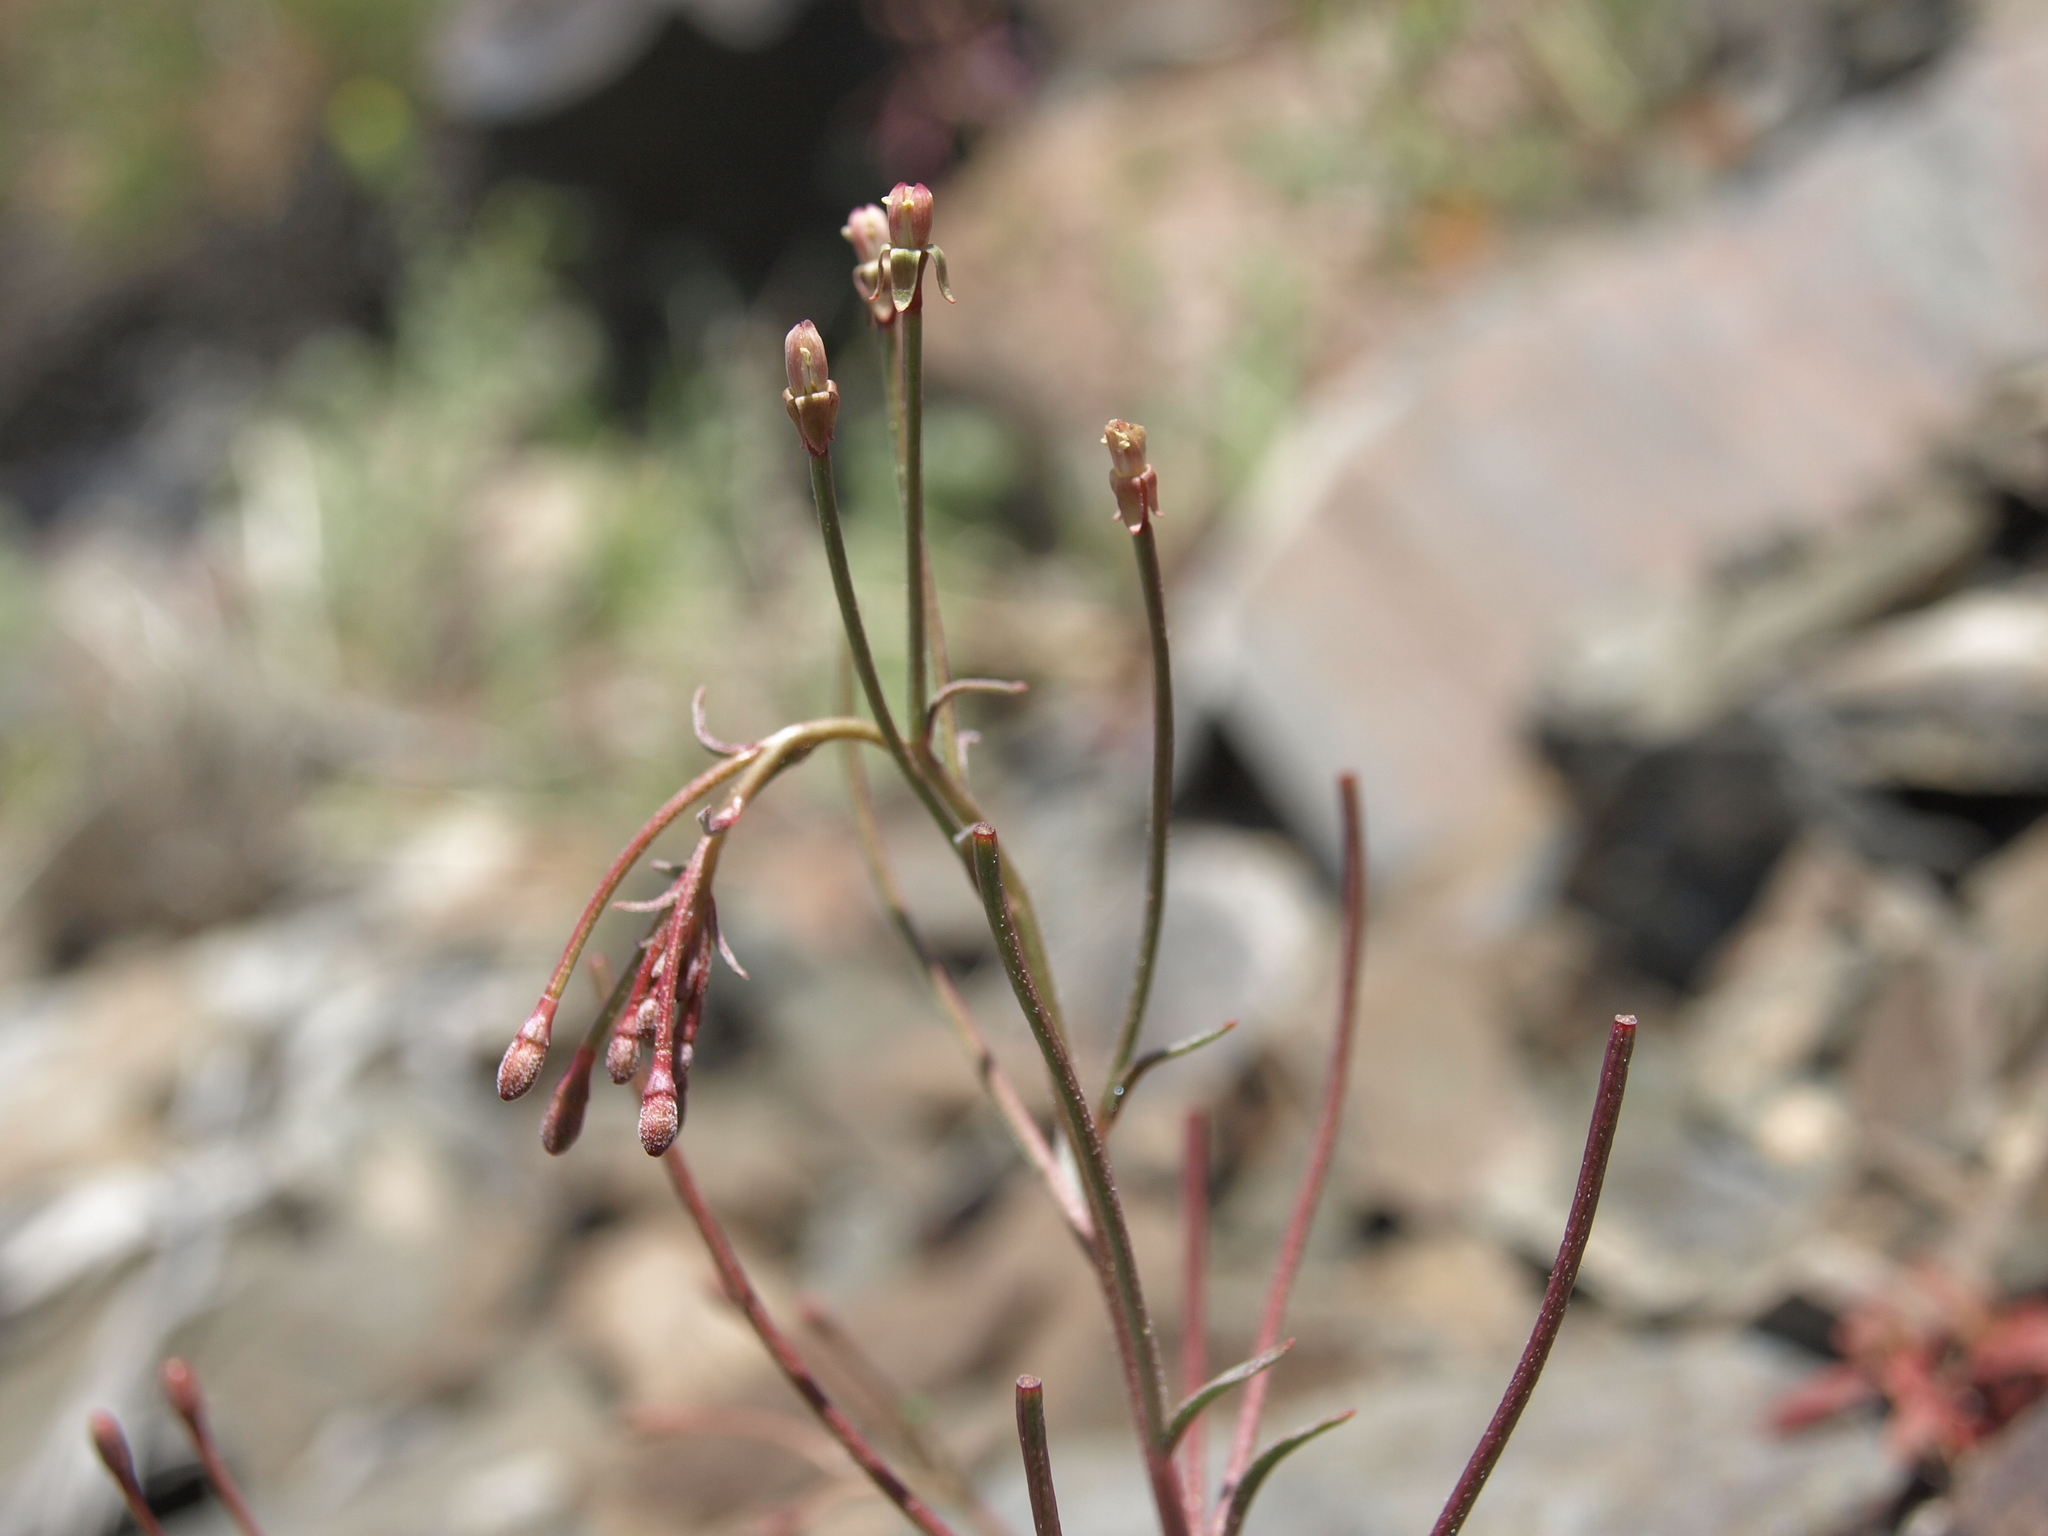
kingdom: Plantae
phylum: Tracheophyta
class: Magnoliopsida
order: Myrtales
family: Onagraceae
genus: Eremothera
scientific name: Eremothera chamaenerioides
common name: Longcapsule suncup
